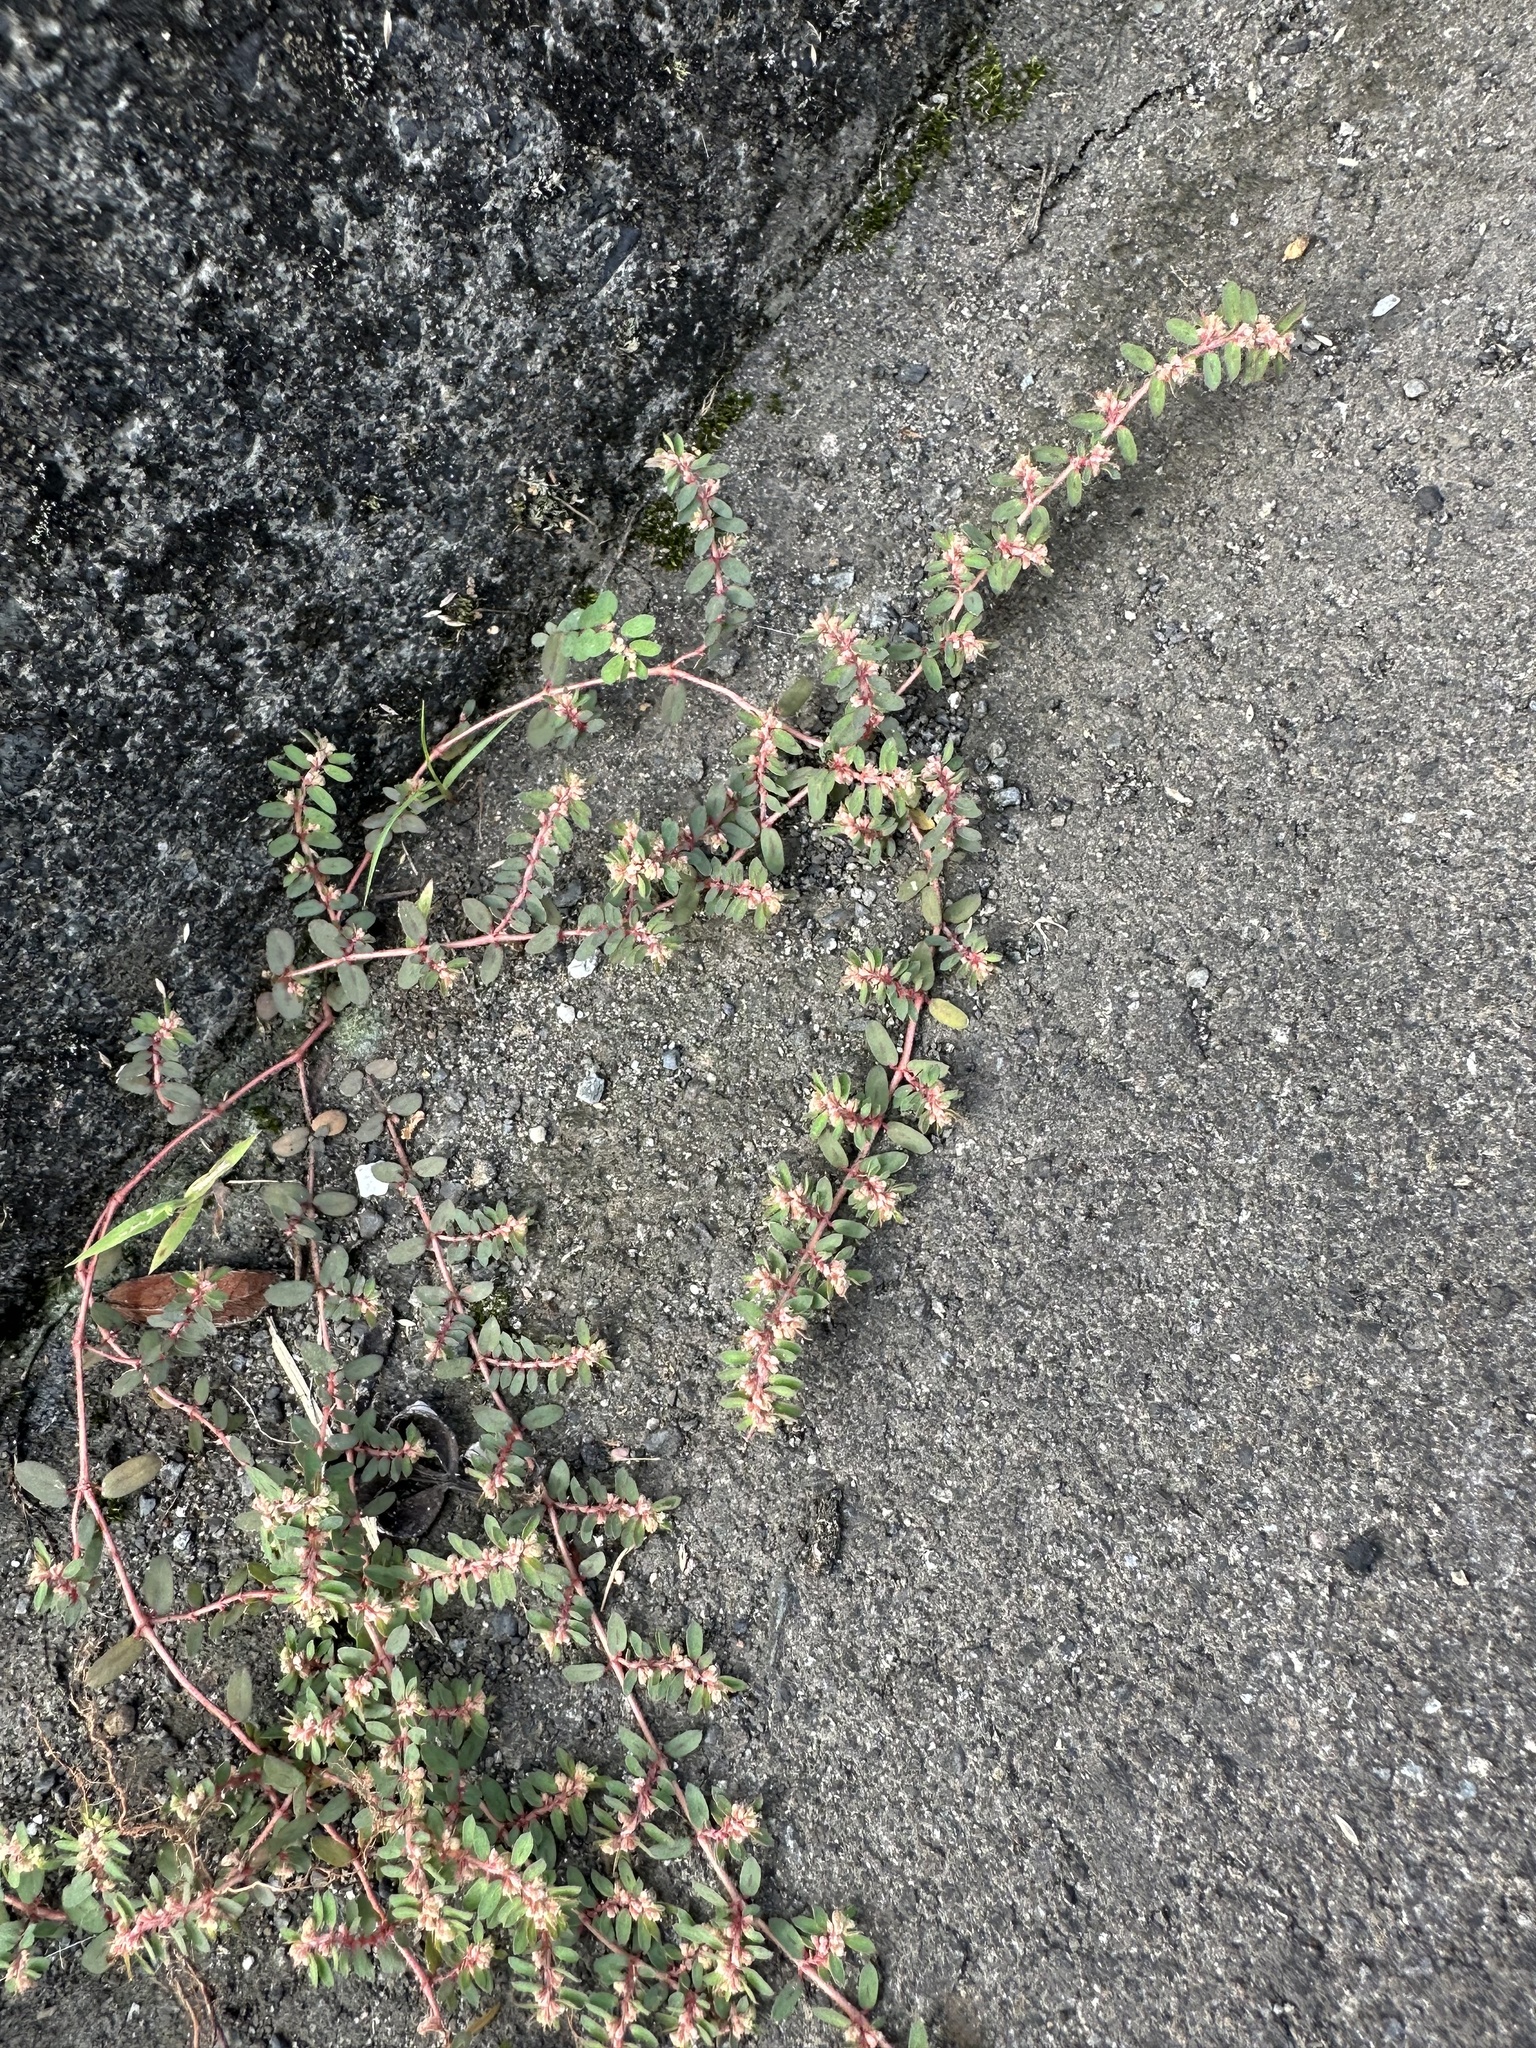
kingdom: Plantae
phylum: Tracheophyta
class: Magnoliopsida
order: Malpighiales
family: Euphorbiaceae
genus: Euphorbia
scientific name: Euphorbia maculata
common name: Spotted spurge
